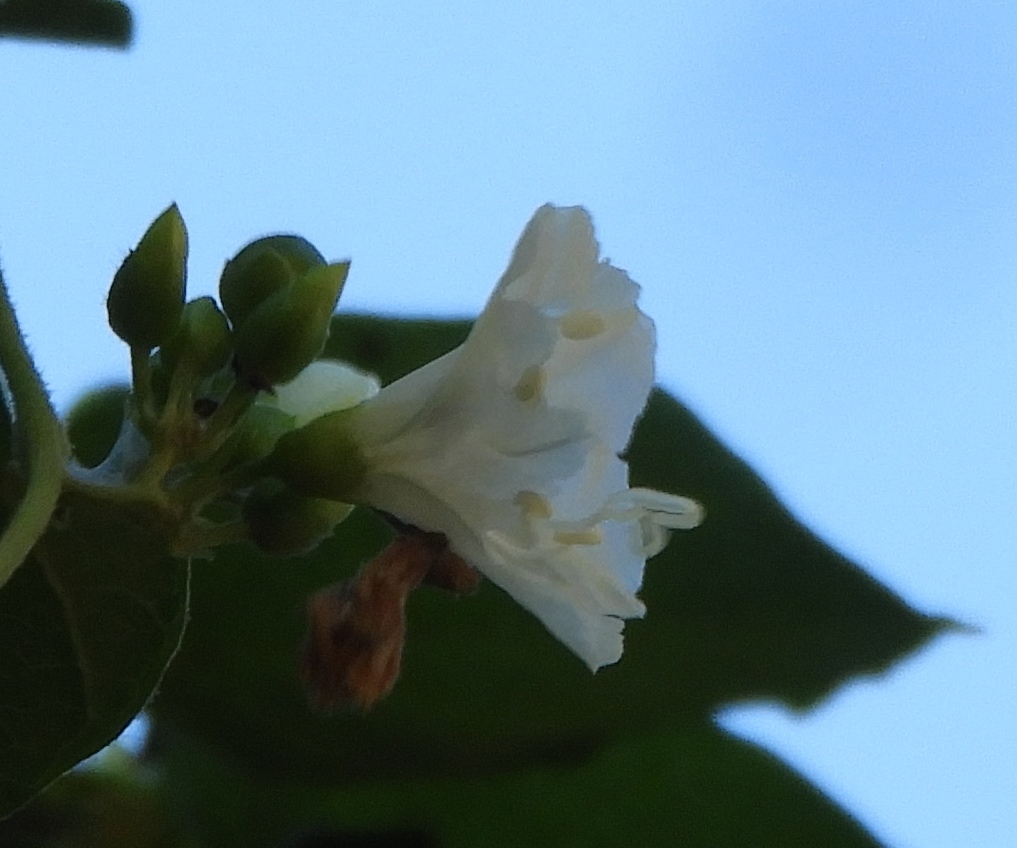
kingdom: Plantae
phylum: Tracheophyta
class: Magnoliopsida
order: Solanales
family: Convolvulaceae
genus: Bonamia
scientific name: Bonamia sulphurea
